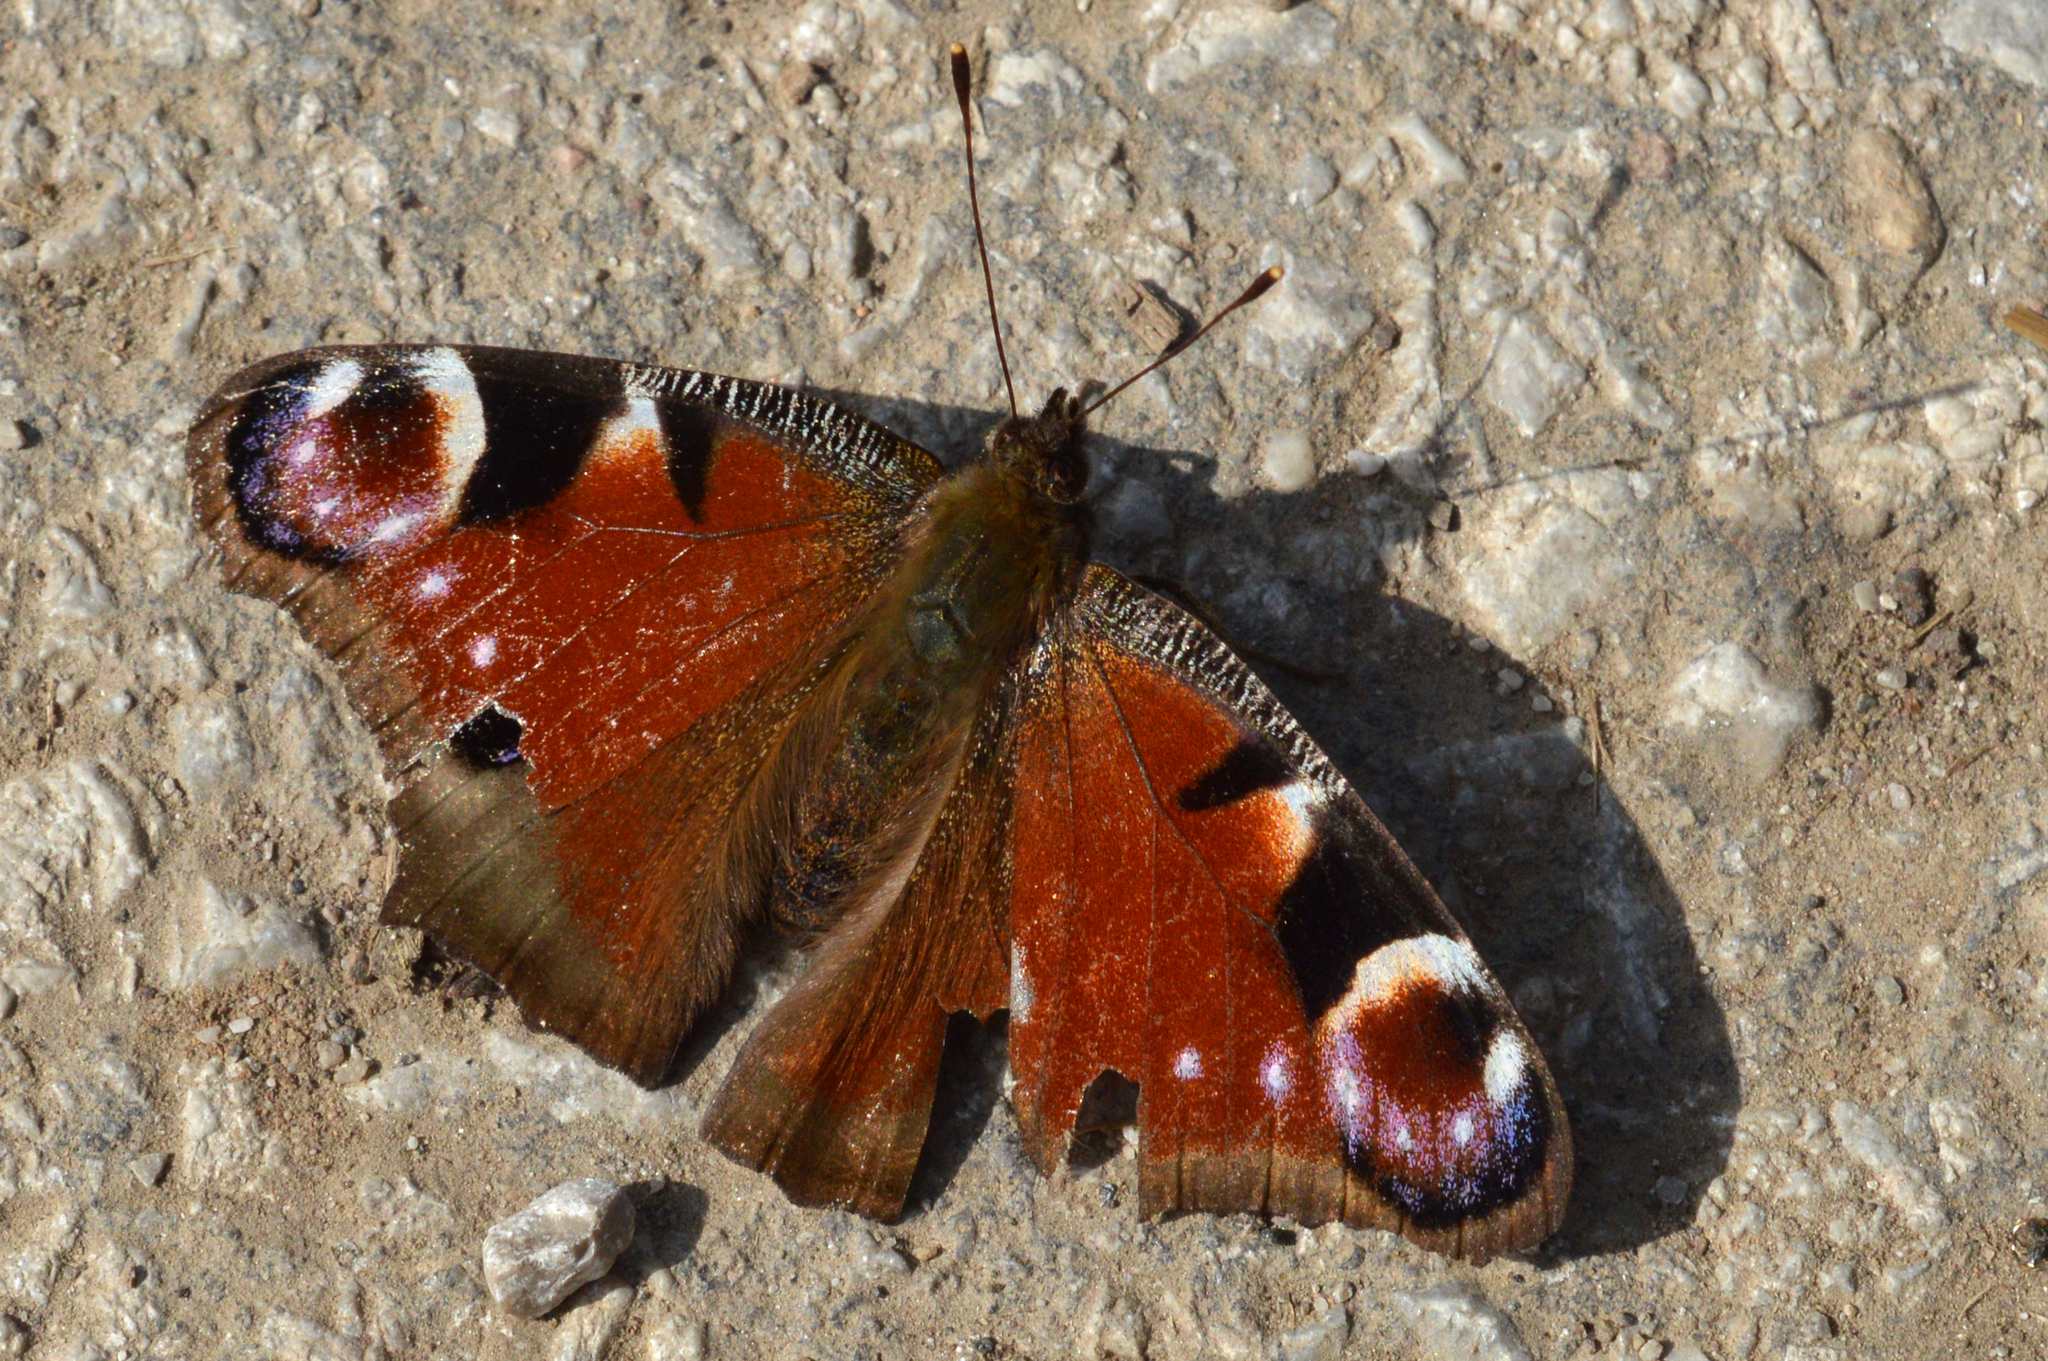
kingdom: Animalia
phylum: Arthropoda
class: Insecta
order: Lepidoptera
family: Nymphalidae
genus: Aglais
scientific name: Aglais io
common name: Peacock
